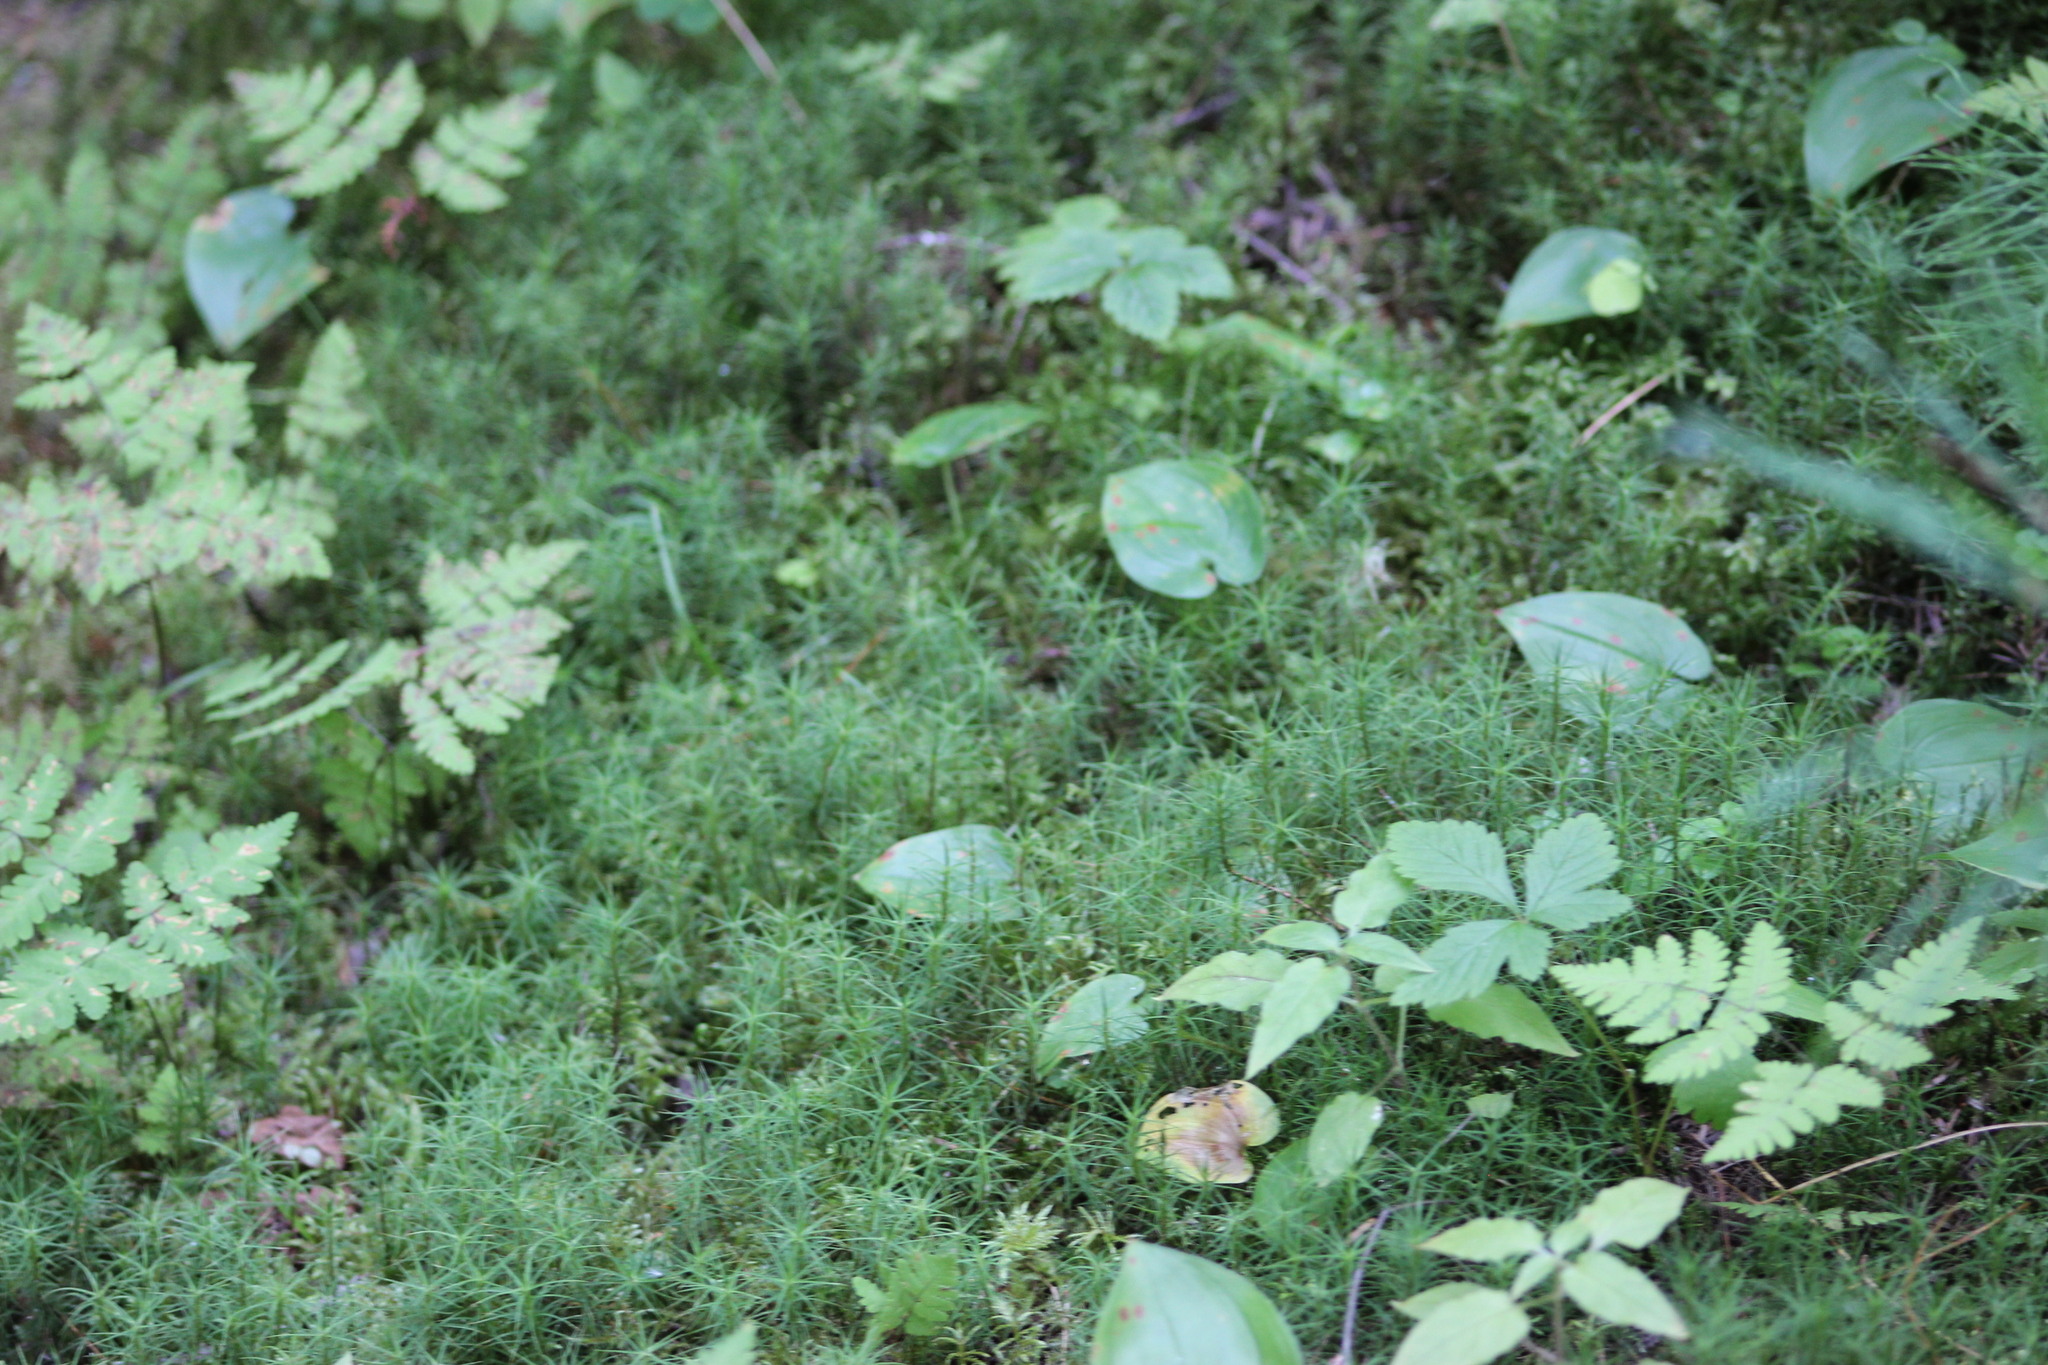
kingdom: Plantae
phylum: Bryophyta
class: Polytrichopsida
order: Polytrichales
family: Polytrichaceae
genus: Polytrichum
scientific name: Polytrichum commune
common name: Common haircap
